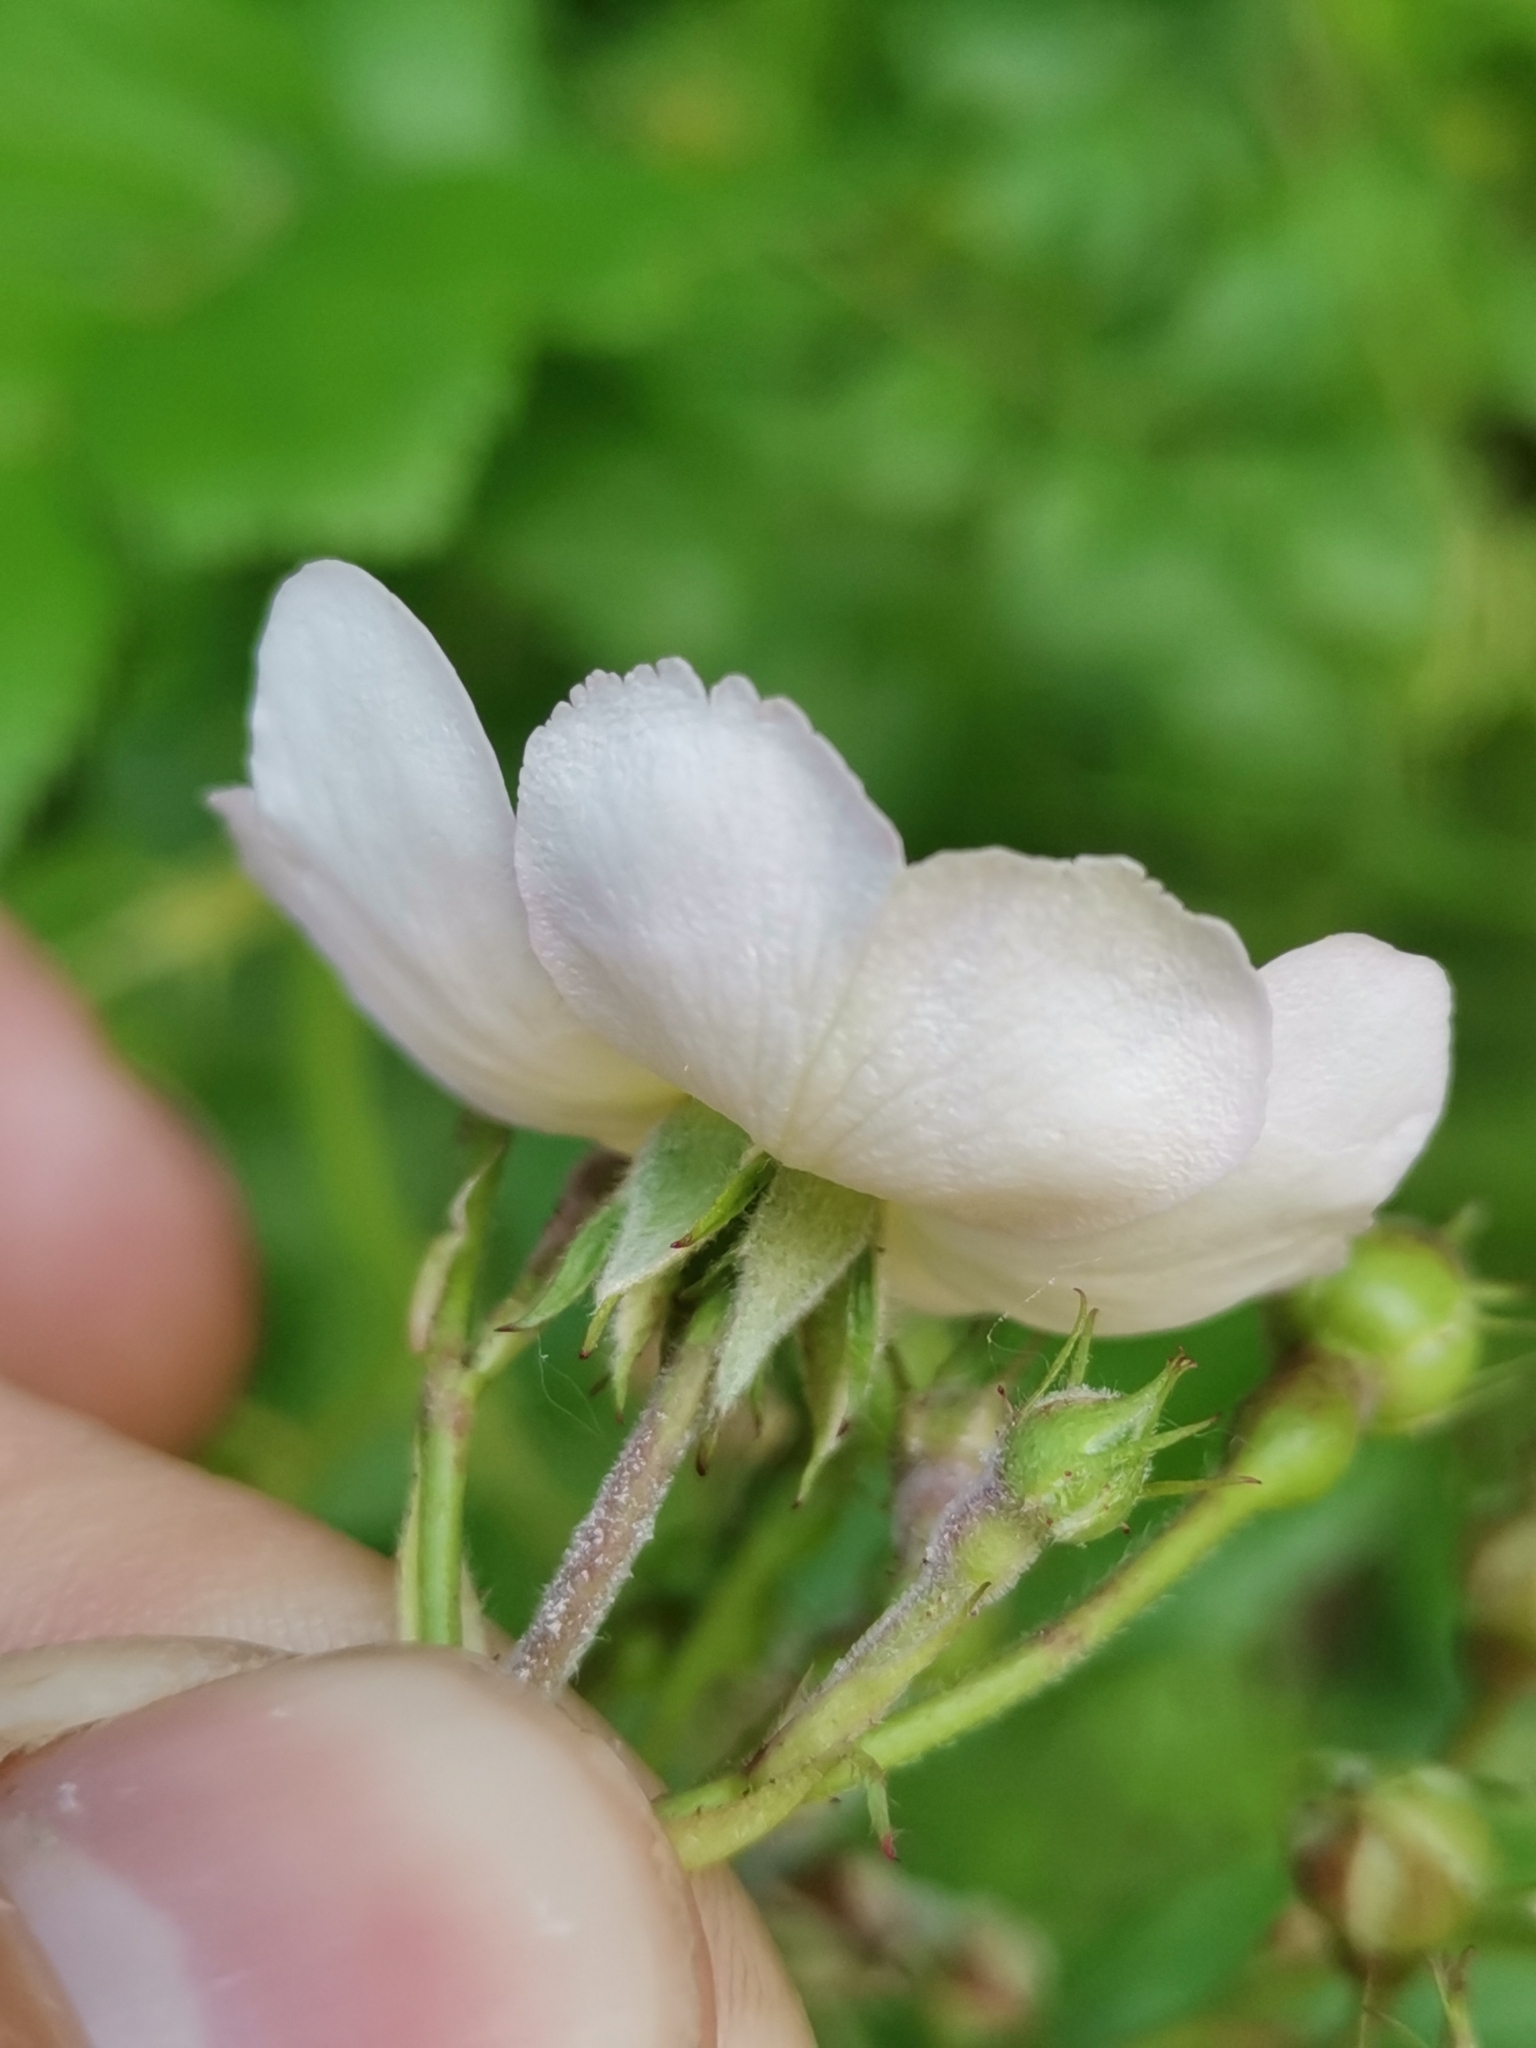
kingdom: Plantae
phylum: Tracheophyta
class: Magnoliopsida
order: Rosales
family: Rosaceae
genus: Rosa
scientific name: Rosa multiflora
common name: Multiflora rose
